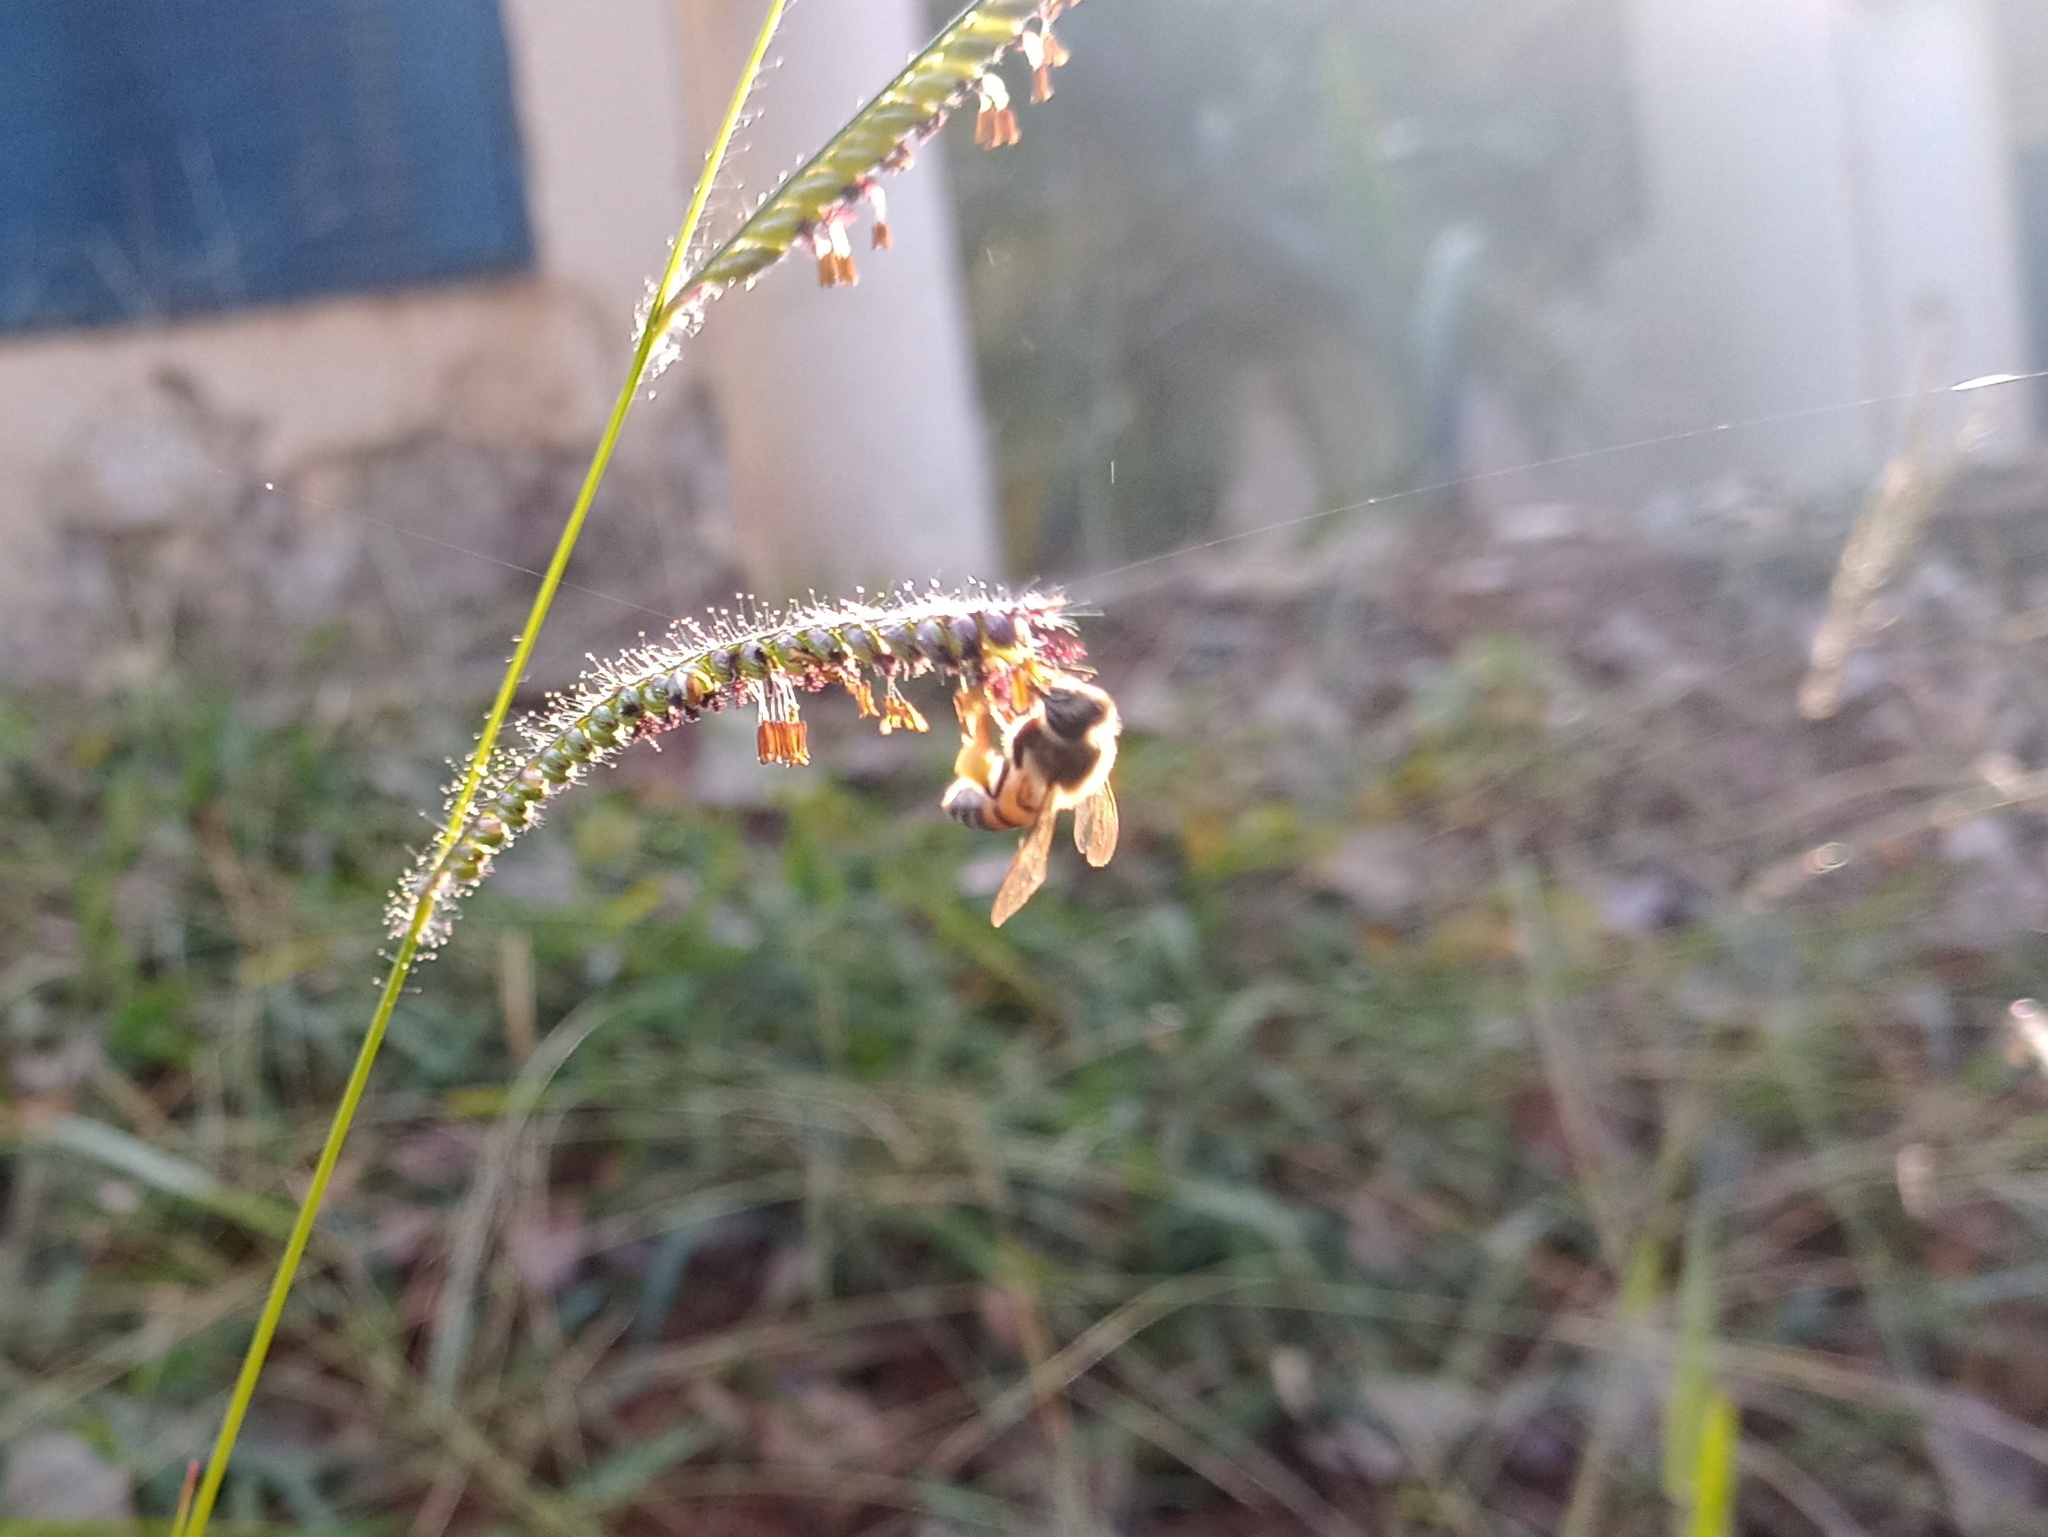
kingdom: Animalia
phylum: Arthropoda
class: Insecta
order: Hymenoptera
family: Apidae
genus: Apis
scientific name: Apis mellifera
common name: Honey bee
